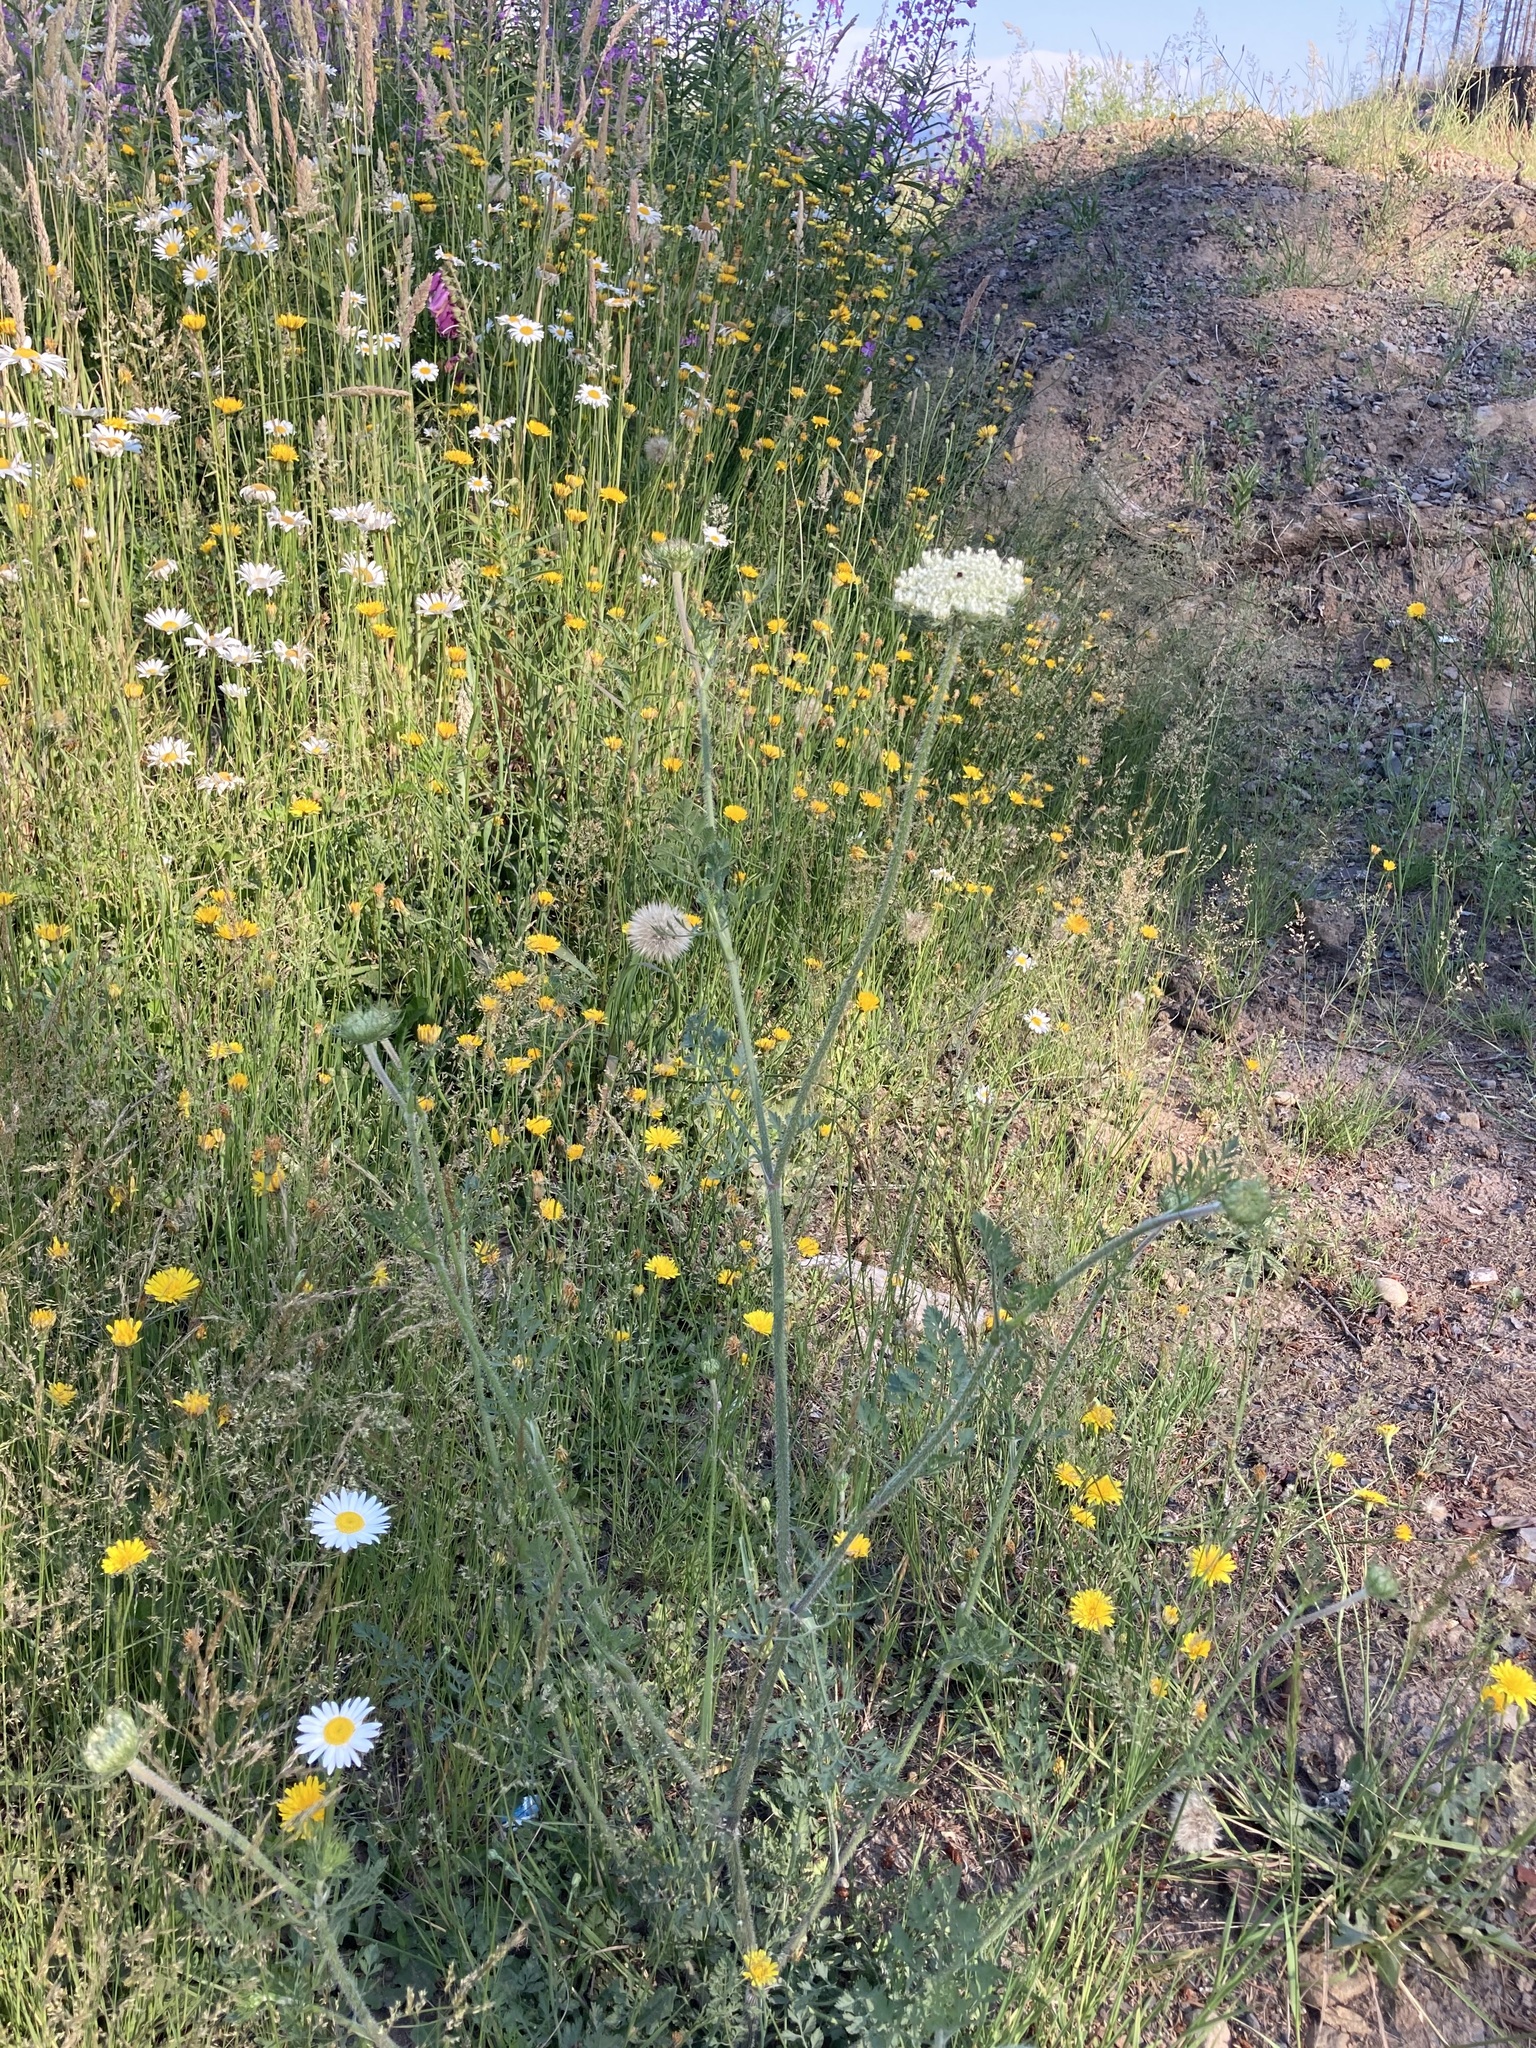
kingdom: Plantae
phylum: Tracheophyta
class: Magnoliopsida
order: Apiales
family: Apiaceae
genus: Daucus
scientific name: Daucus carota
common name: Wild carrot
